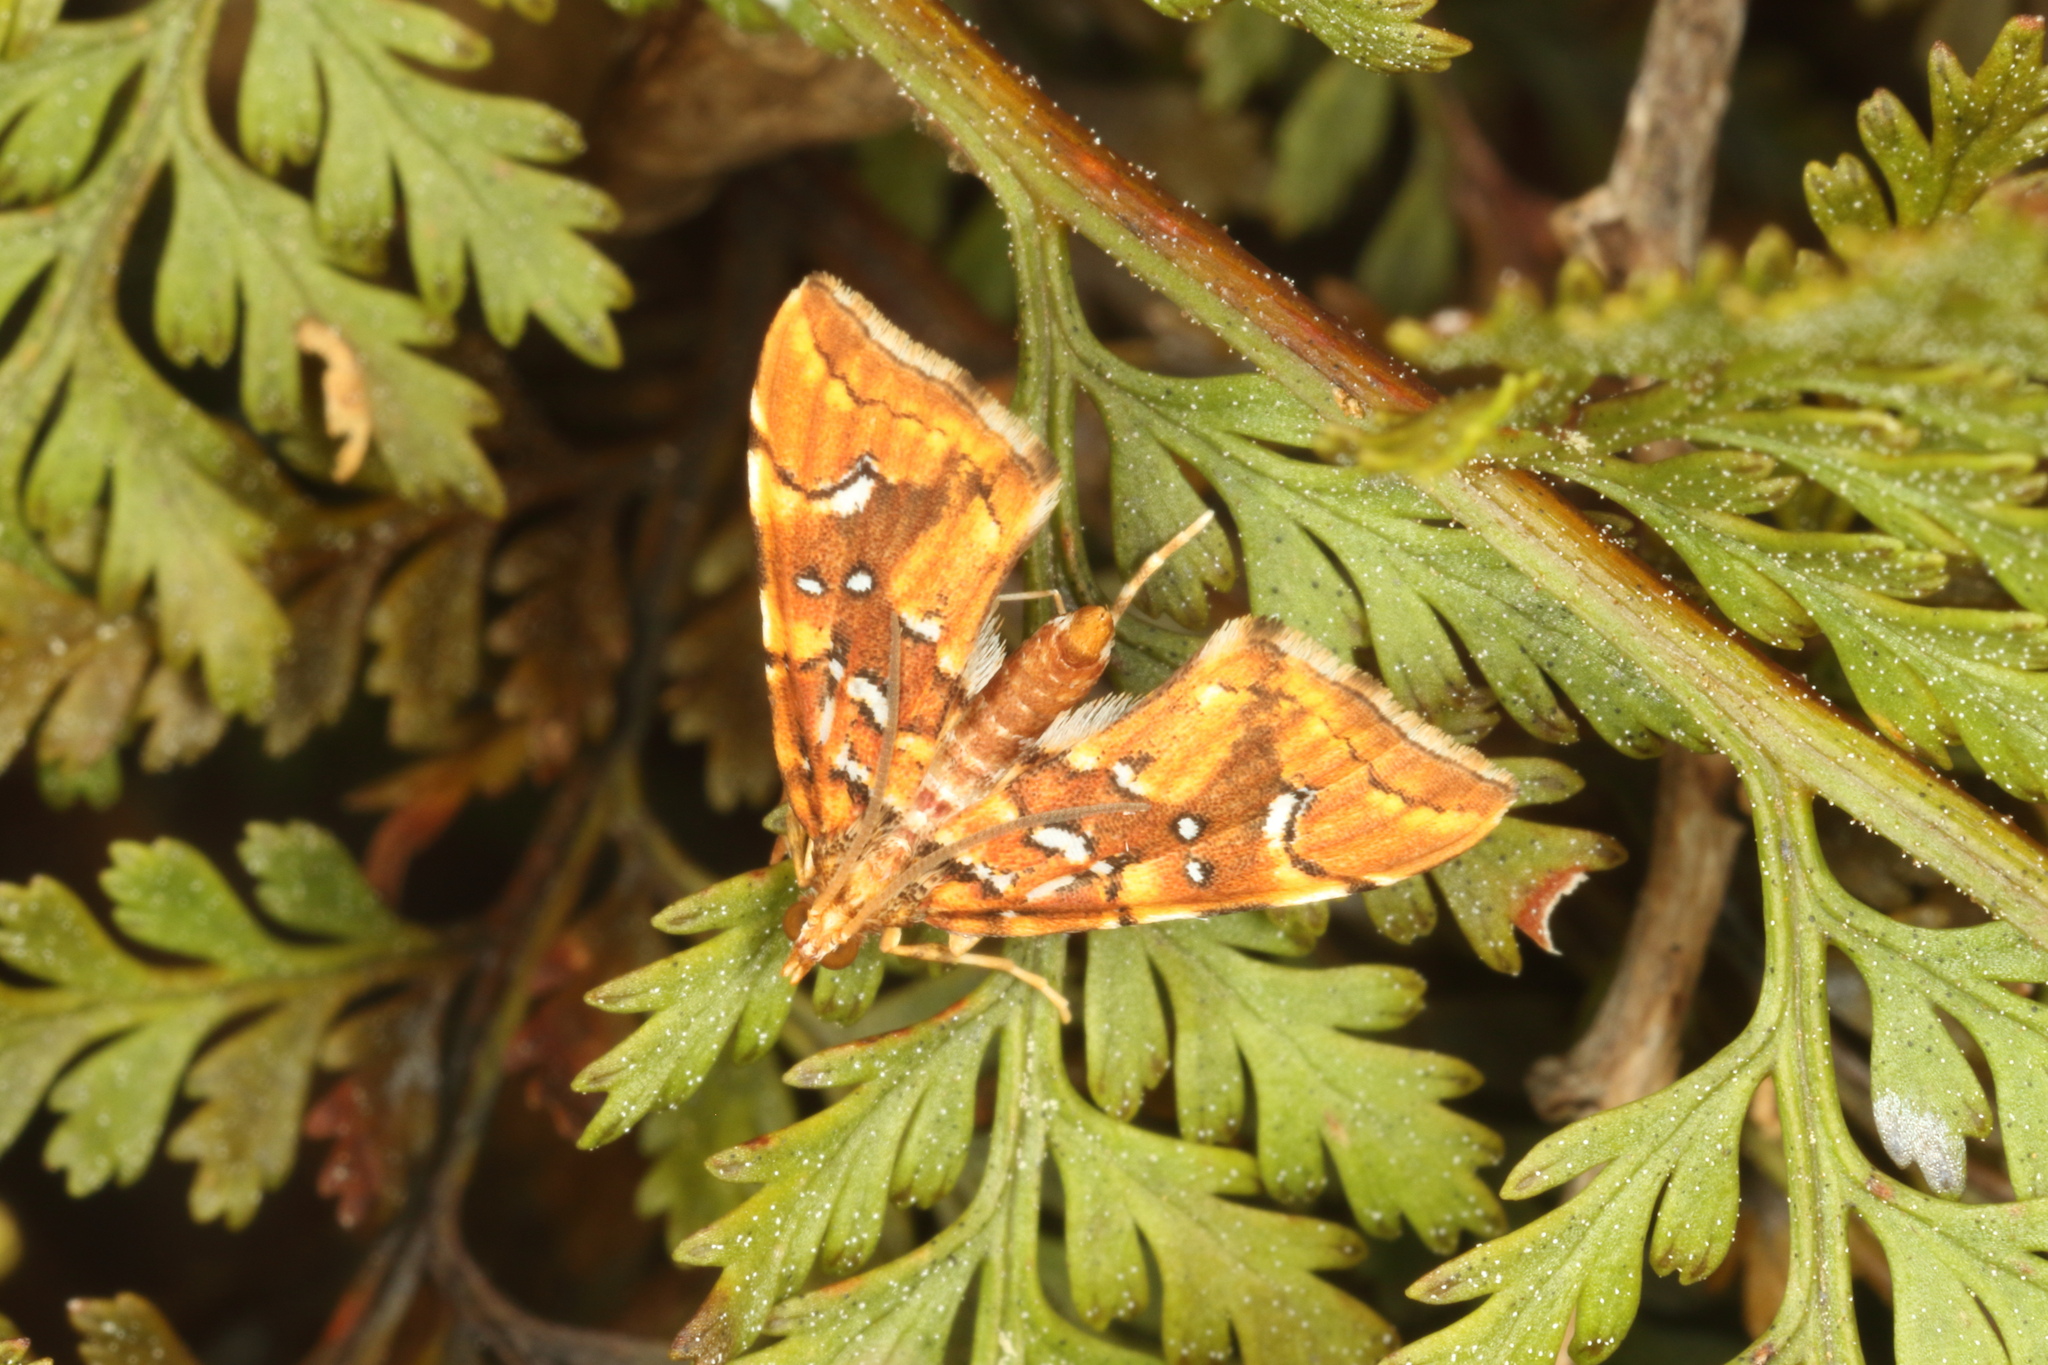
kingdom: Animalia
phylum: Arthropoda
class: Insecta
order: Lepidoptera
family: Pyralidae
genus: Musotima
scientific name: Musotima nitidalis
